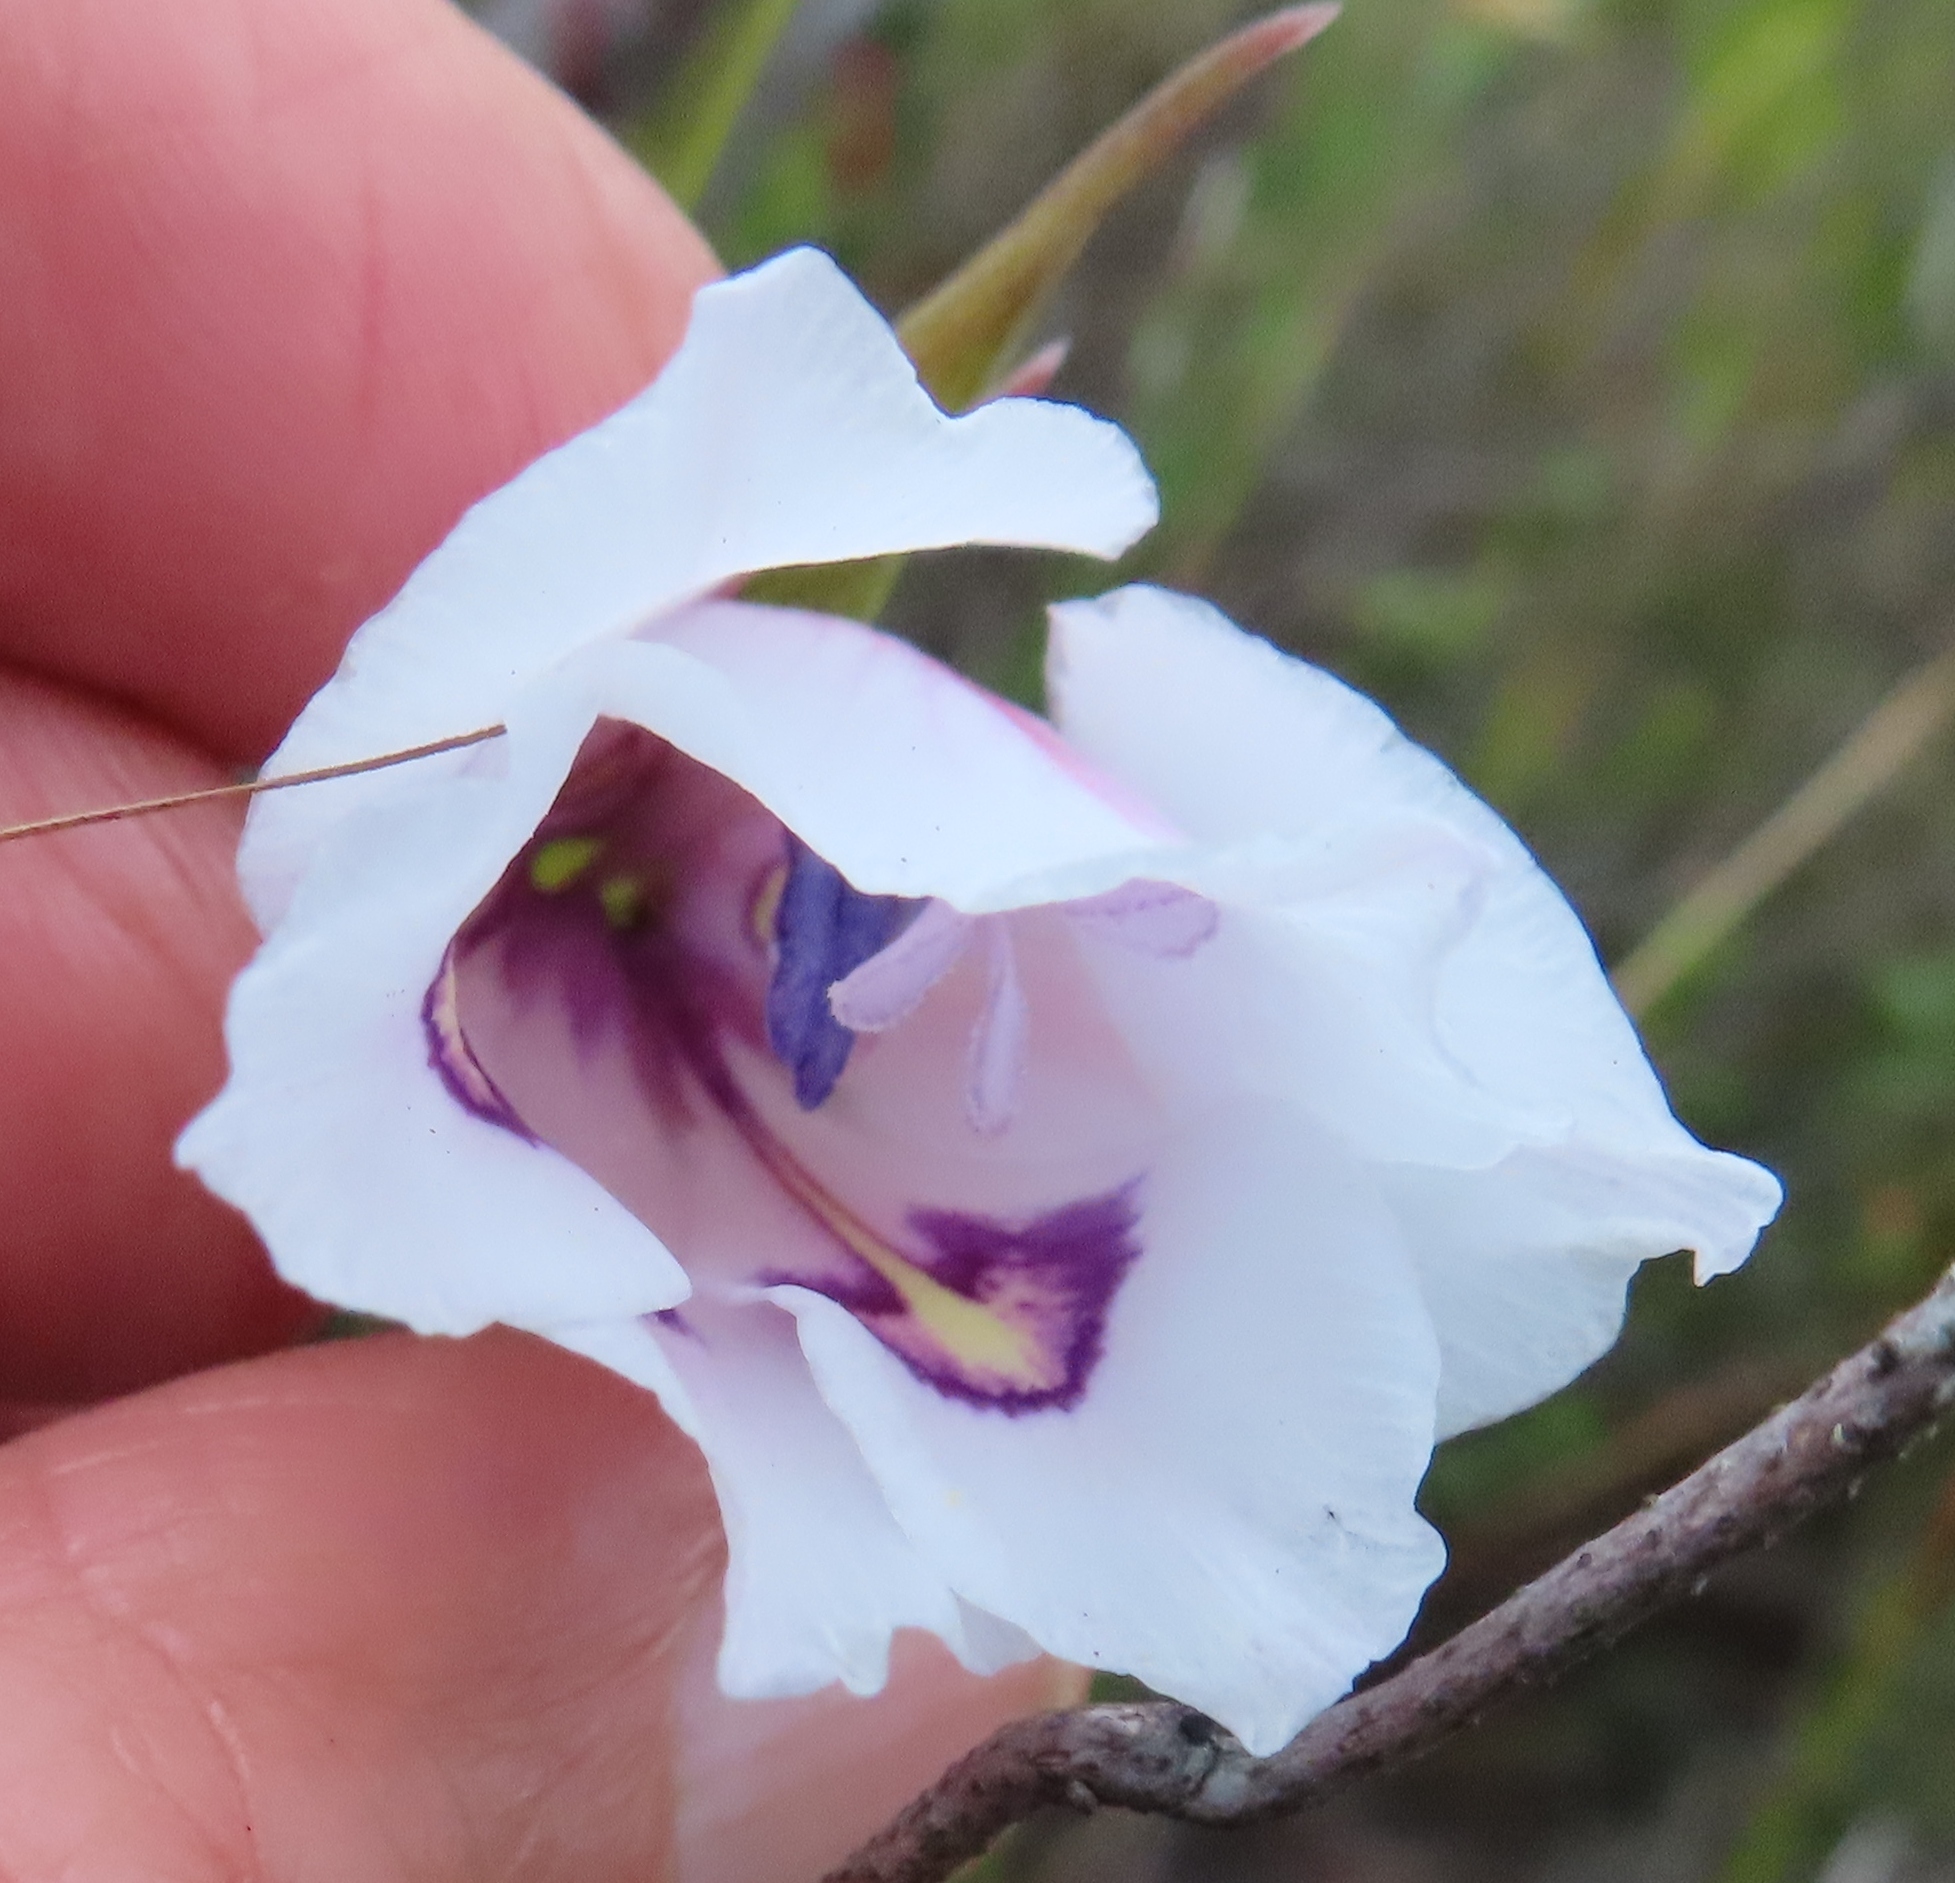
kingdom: Plantae
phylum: Tracheophyta
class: Liliopsida
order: Asparagales
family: Iridaceae
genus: Gladiolus
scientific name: Gladiolus rudis
